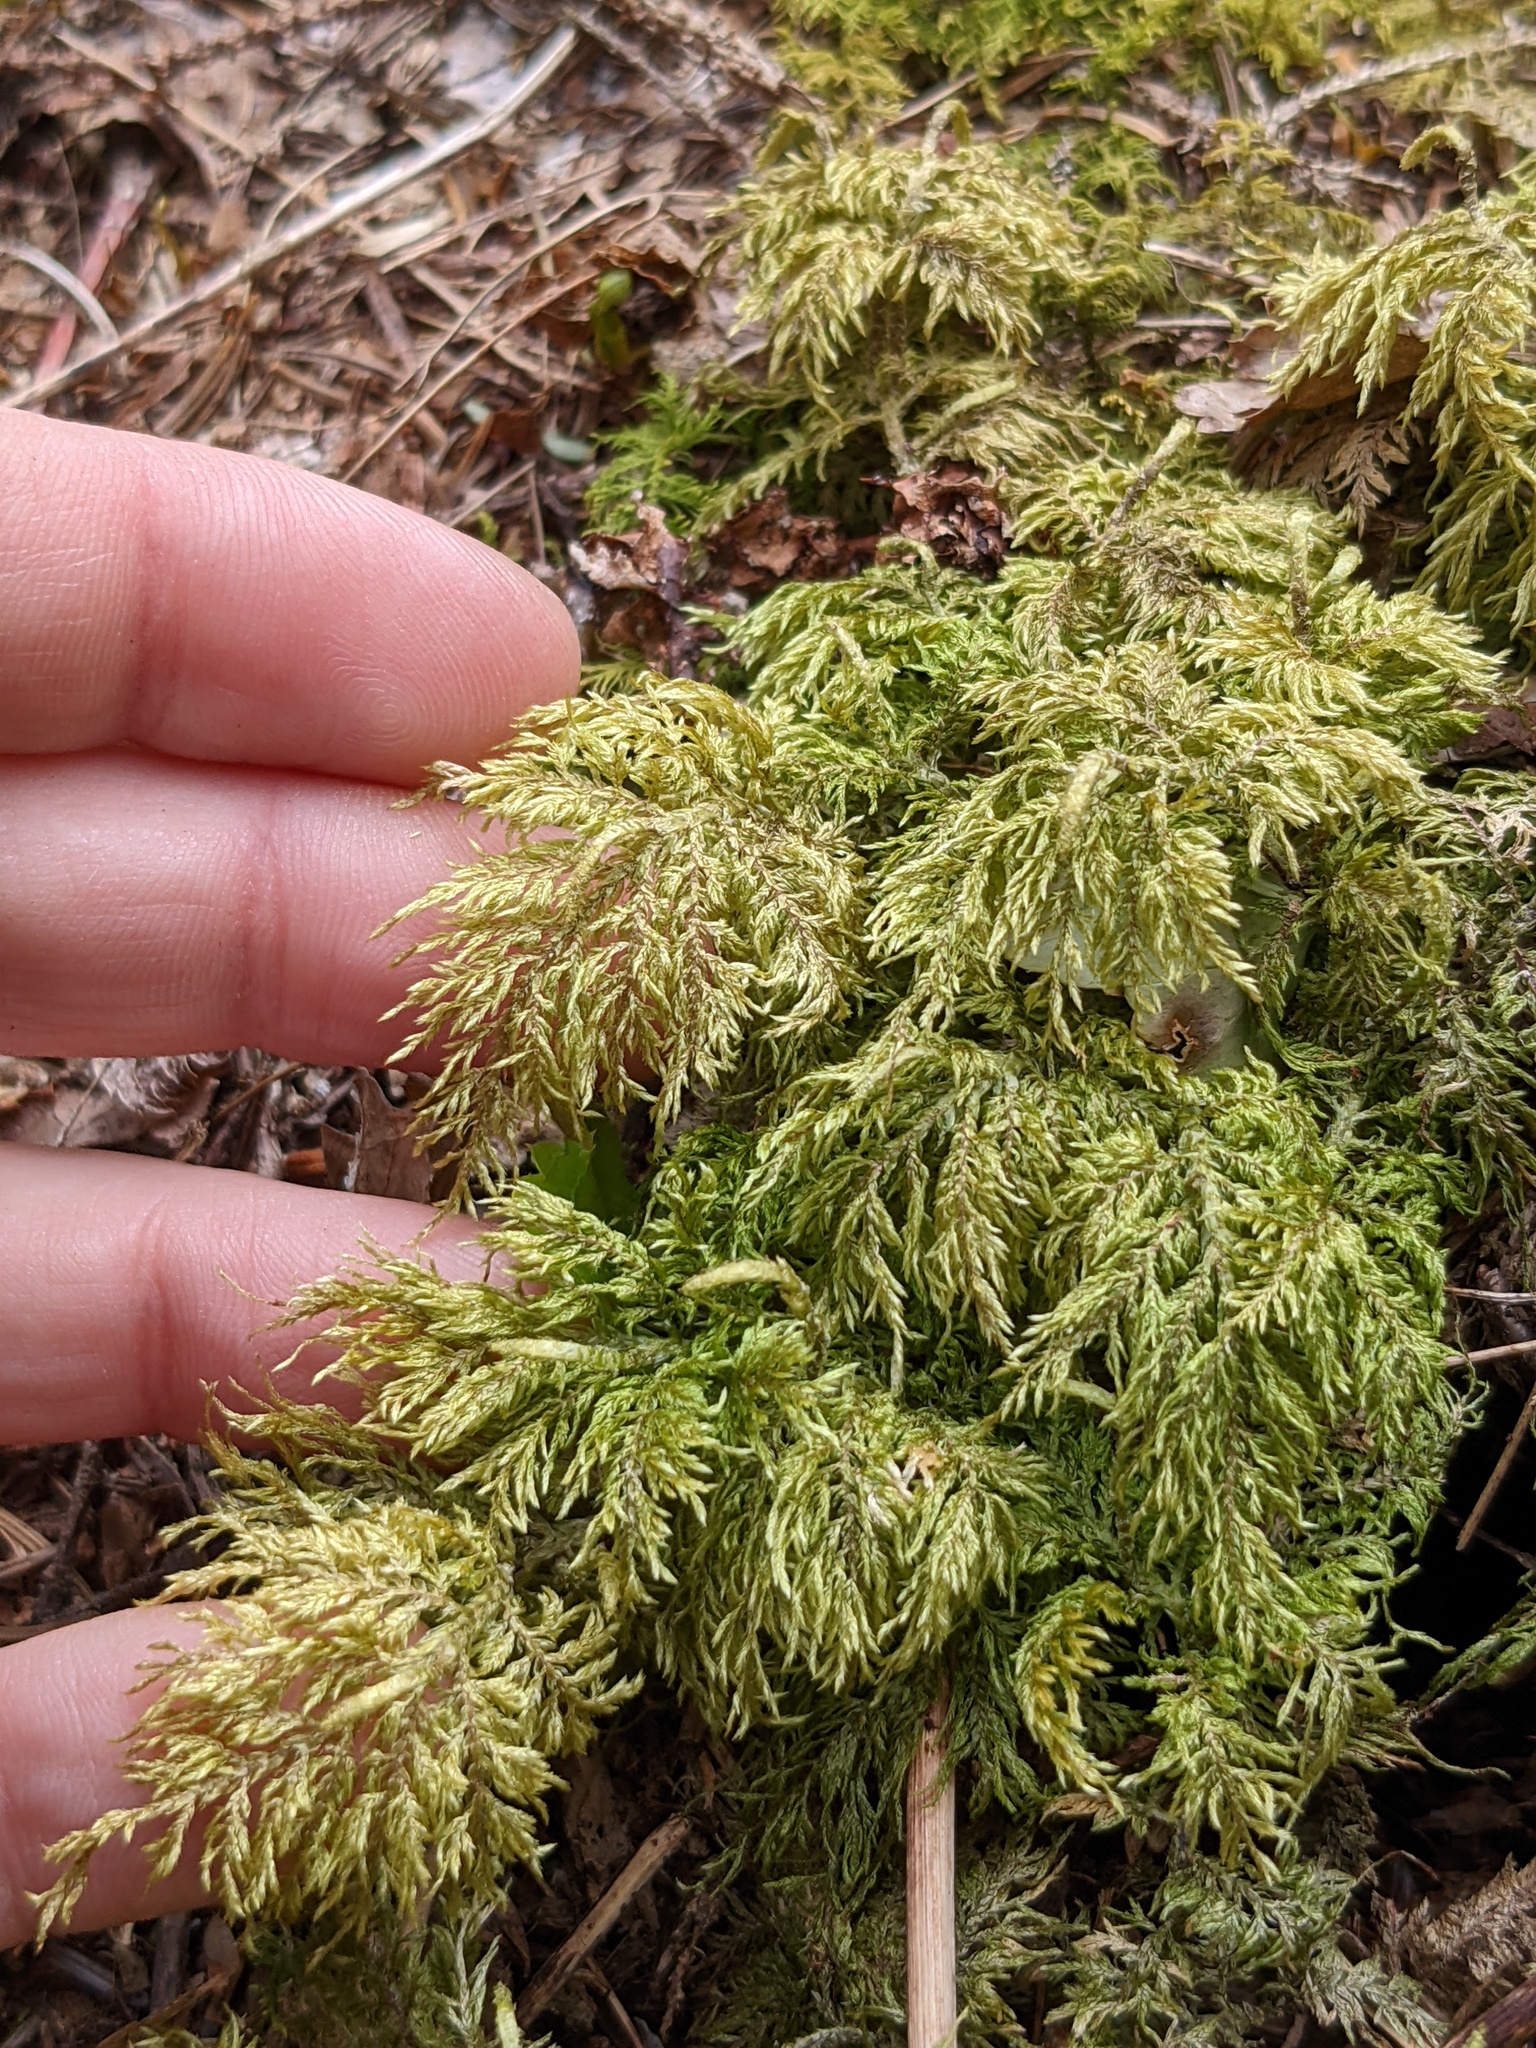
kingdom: Plantae
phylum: Bryophyta
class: Bryopsida
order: Hypnales
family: Hylocomiaceae
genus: Hylocomium
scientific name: Hylocomium splendens
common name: Stairstep moss
